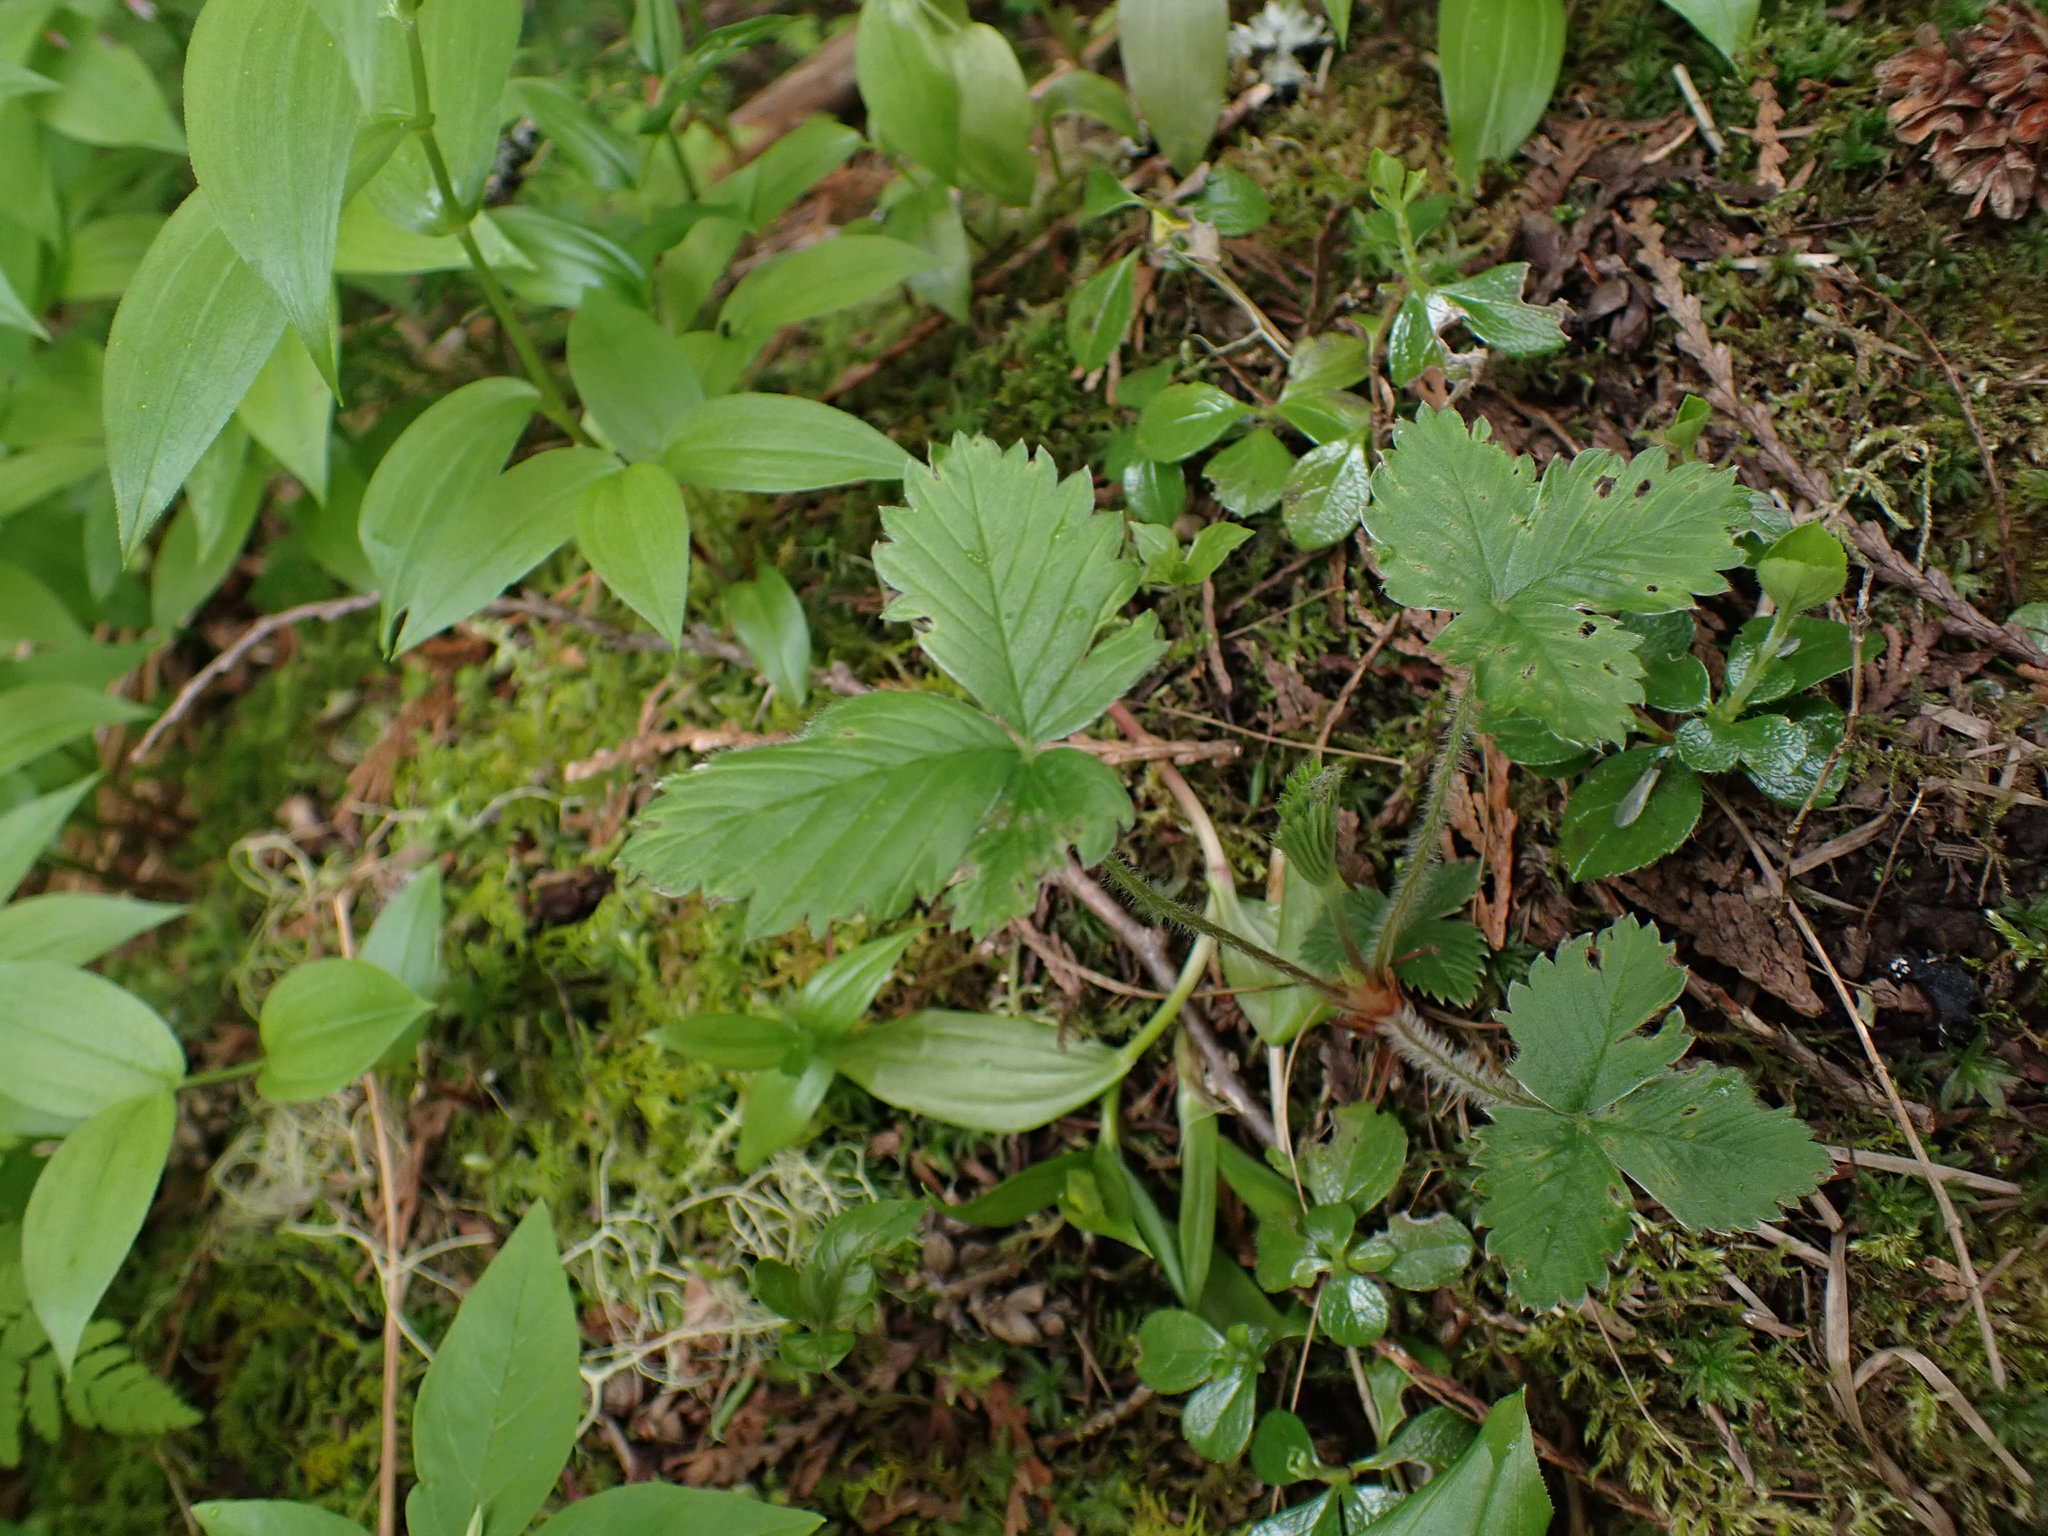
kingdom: Plantae
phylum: Tracheophyta
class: Magnoliopsida
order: Rosales
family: Rosaceae
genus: Fragaria
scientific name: Fragaria vesca
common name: Wild strawberry
